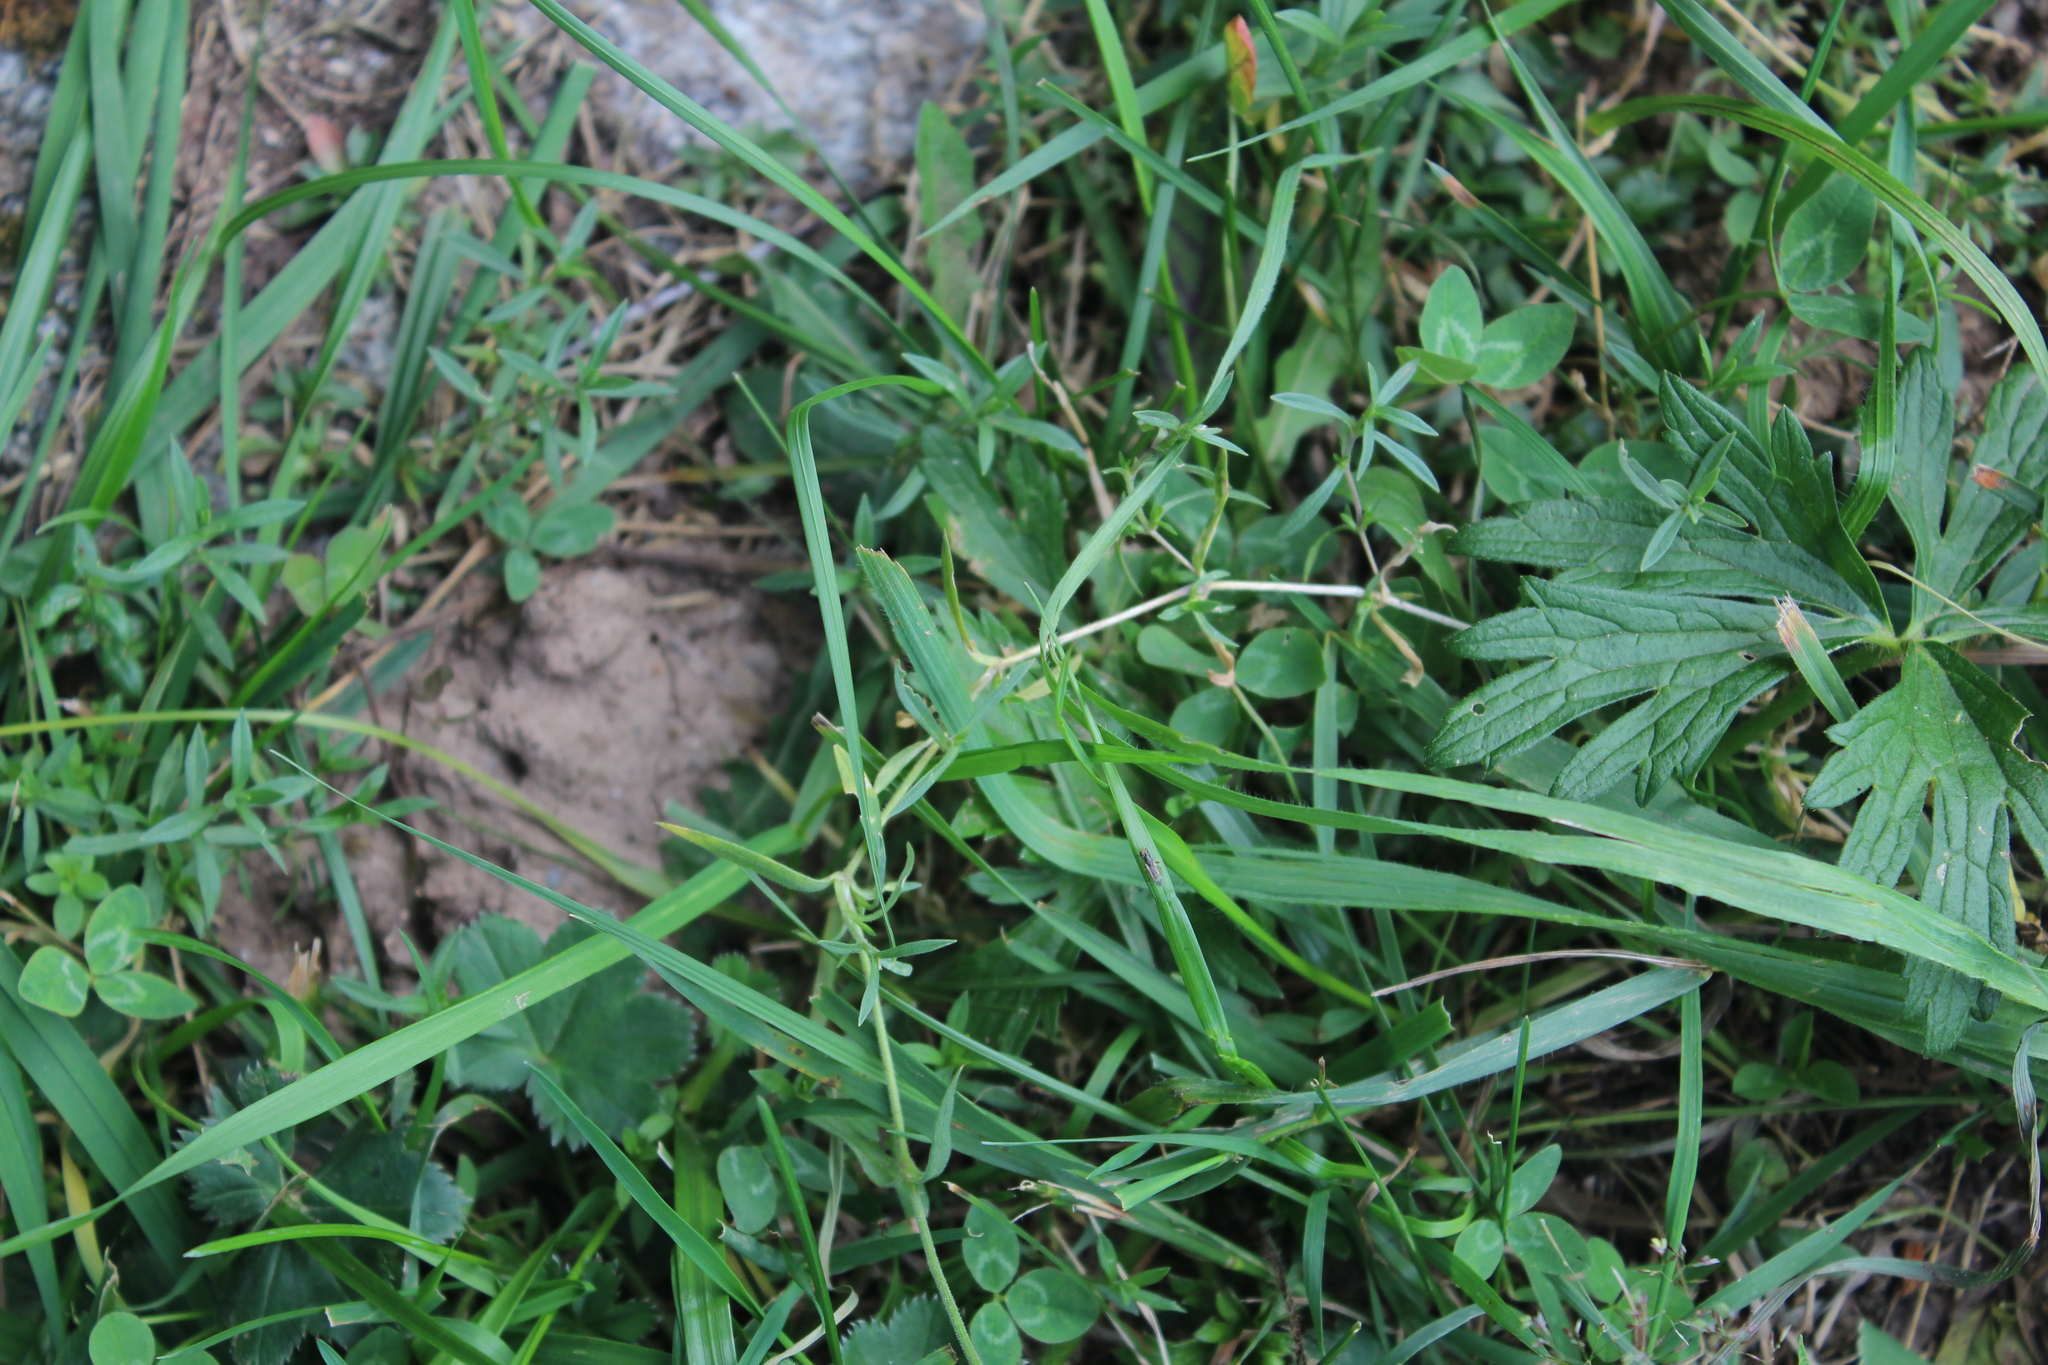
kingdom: Plantae
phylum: Tracheophyta
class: Magnoliopsida
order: Caryophyllales
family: Caryophyllaceae
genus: Cerastium
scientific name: Cerastium arvense
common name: Field mouse-ear
